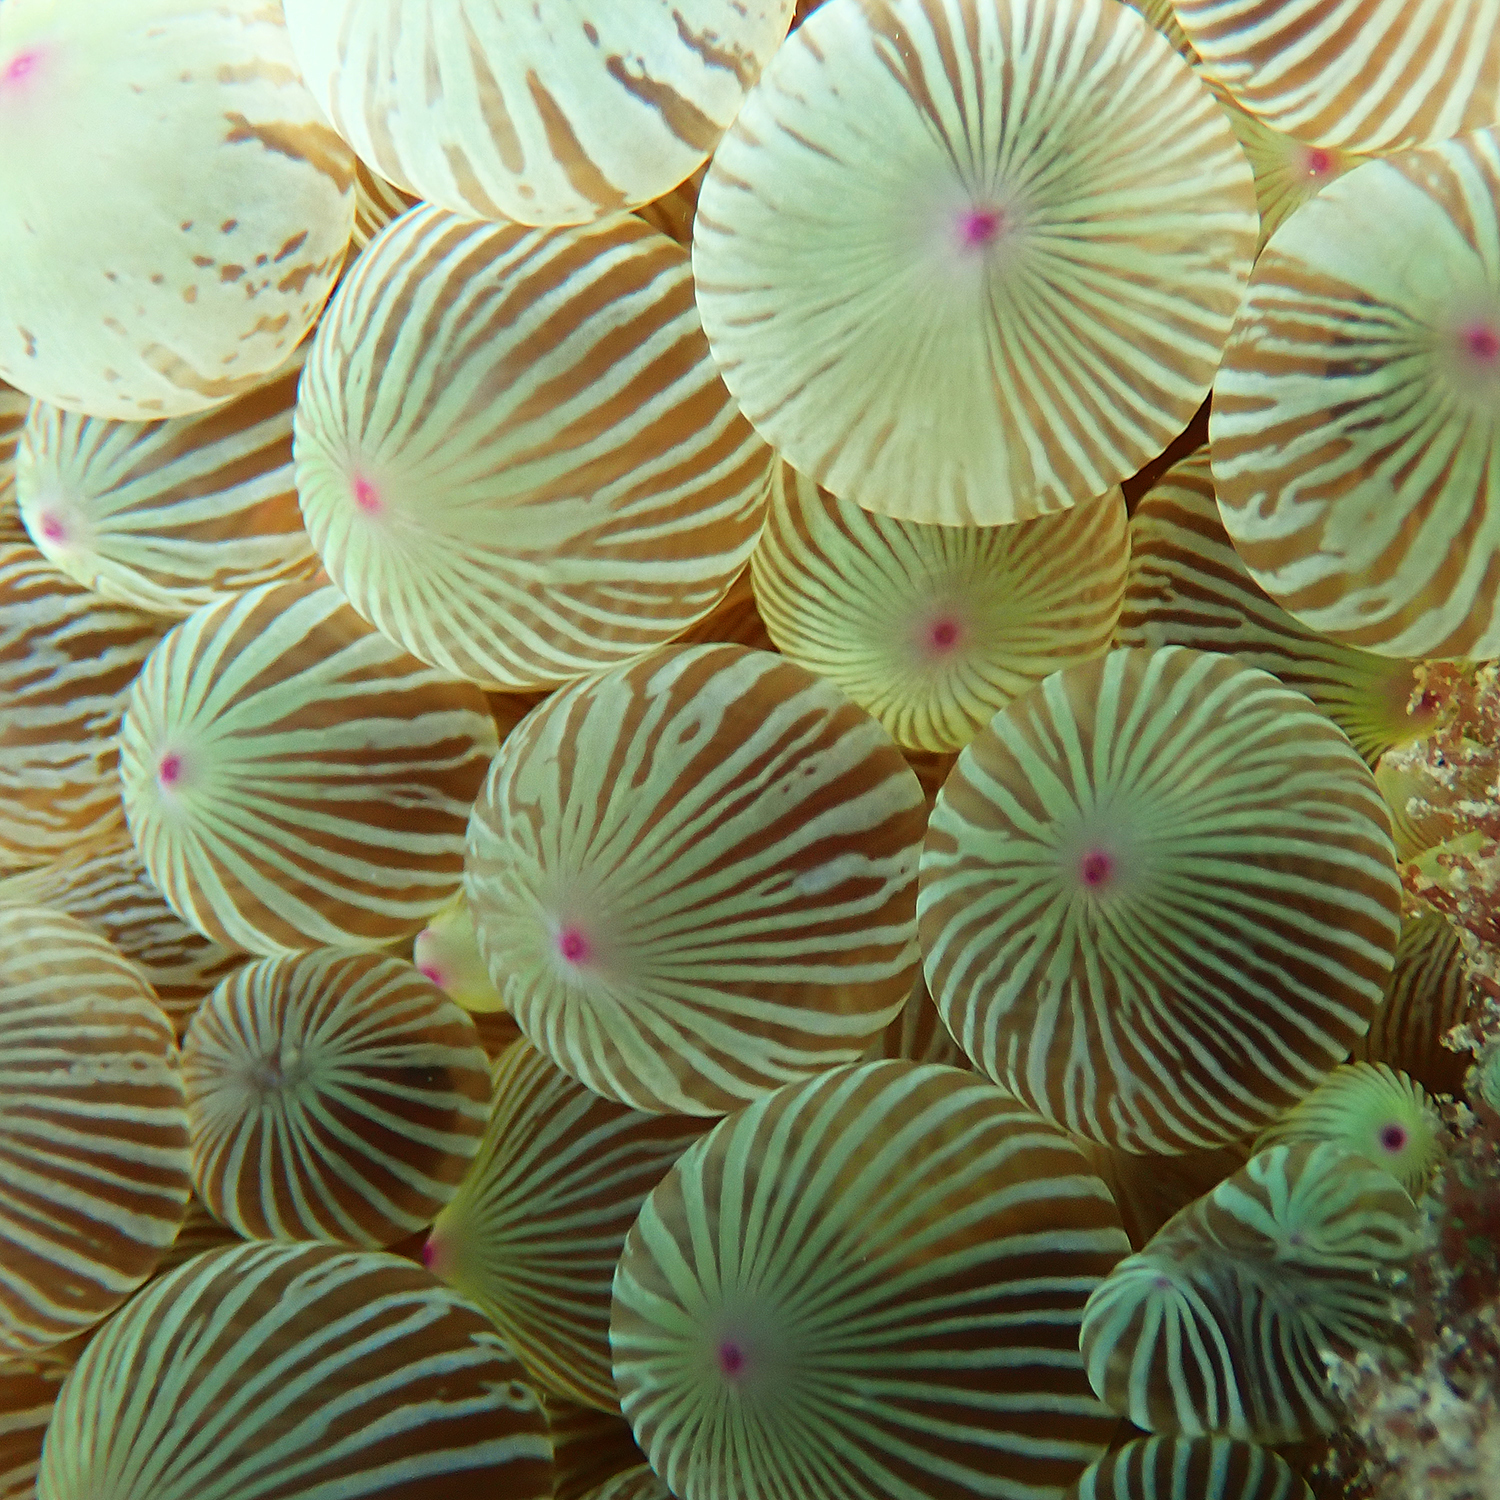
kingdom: Animalia
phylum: Cnidaria
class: Anthozoa
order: Actiniaria
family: Actiniidae
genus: Entacmaea
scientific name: Entacmaea quadricolor
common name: Bulb tentacle sea anemone
